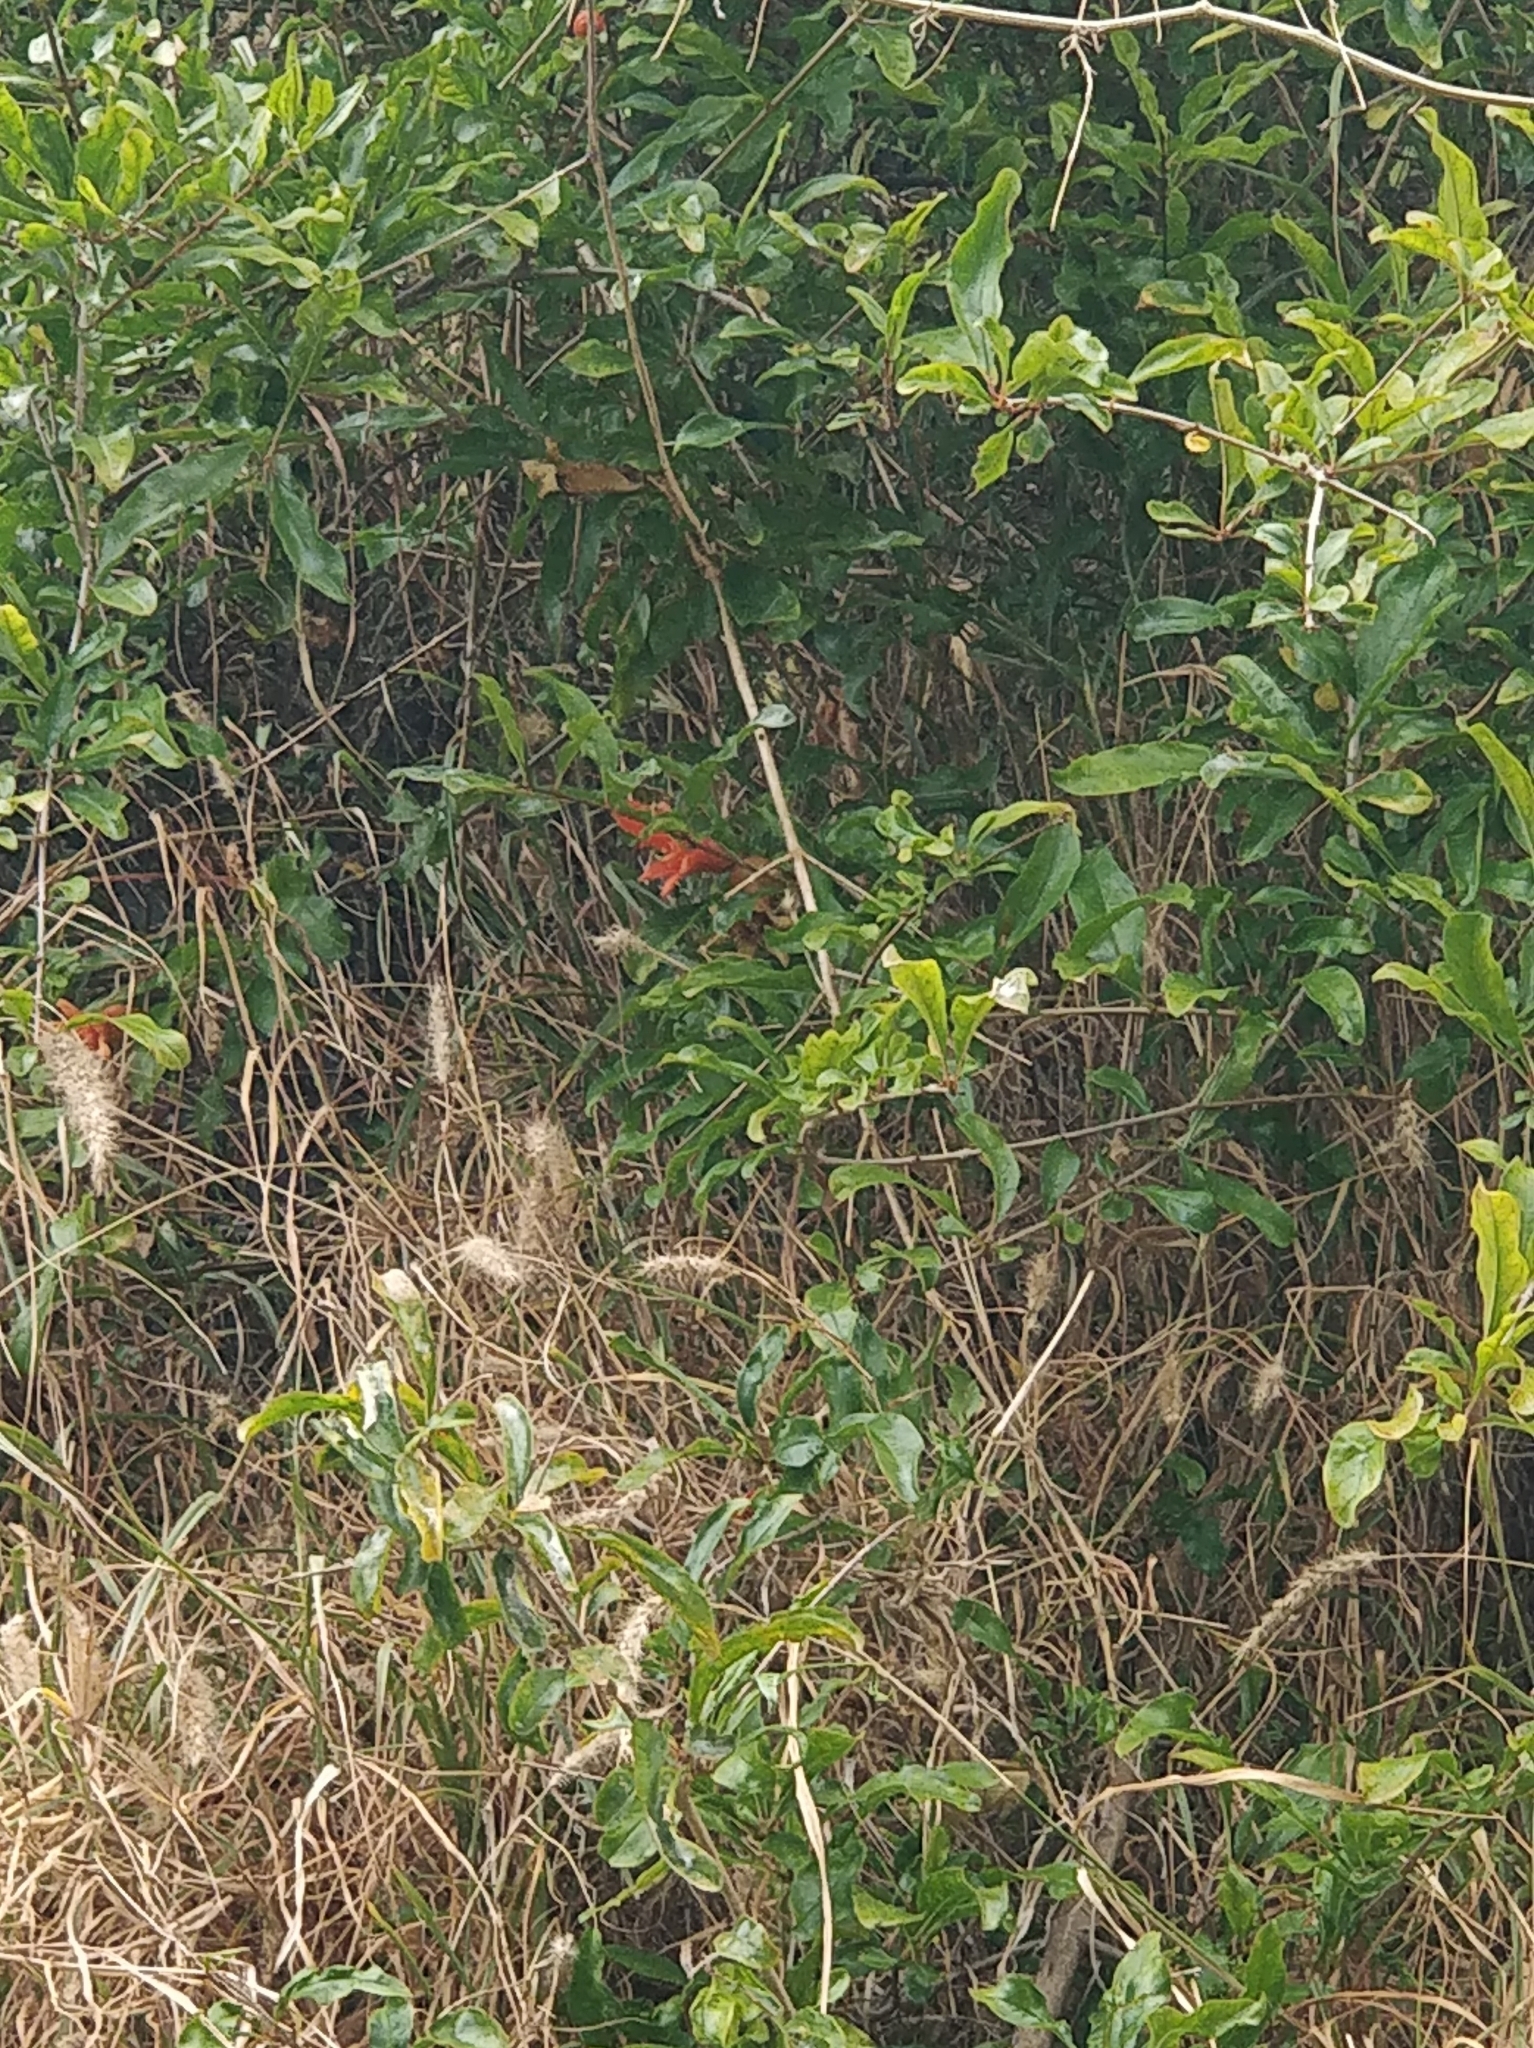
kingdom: Plantae
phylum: Tracheophyta
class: Magnoliopsida
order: Myrtales
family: Lythraceae
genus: Punica
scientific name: Punica granatum
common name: Pomegranate
